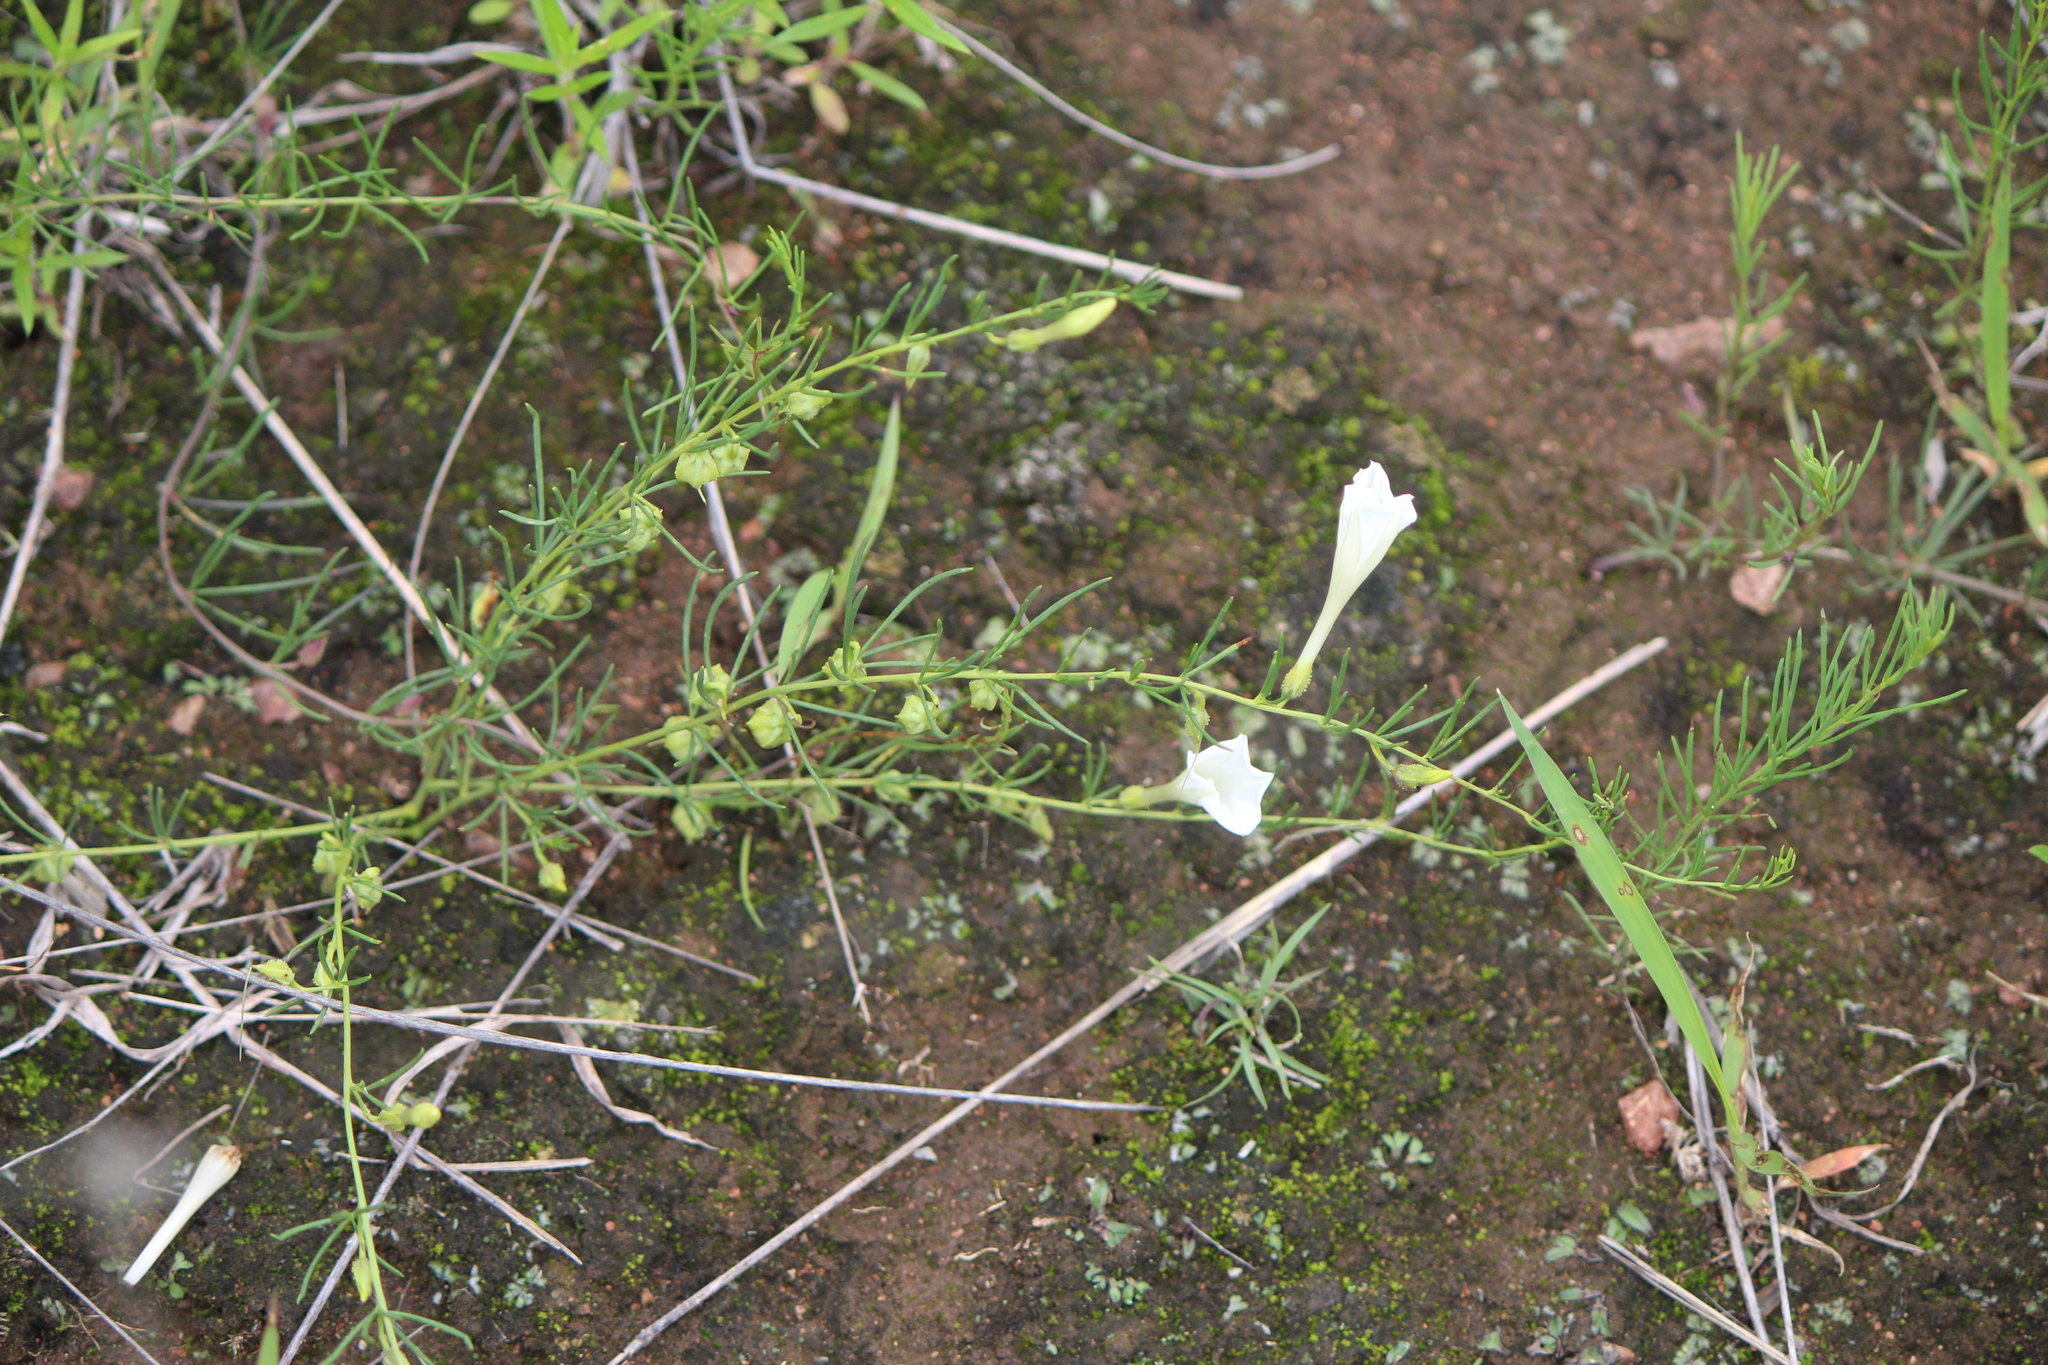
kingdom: Plantae
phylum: Tracheophyta
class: Magnoliopsida
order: Solanales
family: Convolvulaceae
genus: Ipomoea
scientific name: Ipomoea capillacea
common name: Purple morning-glory
